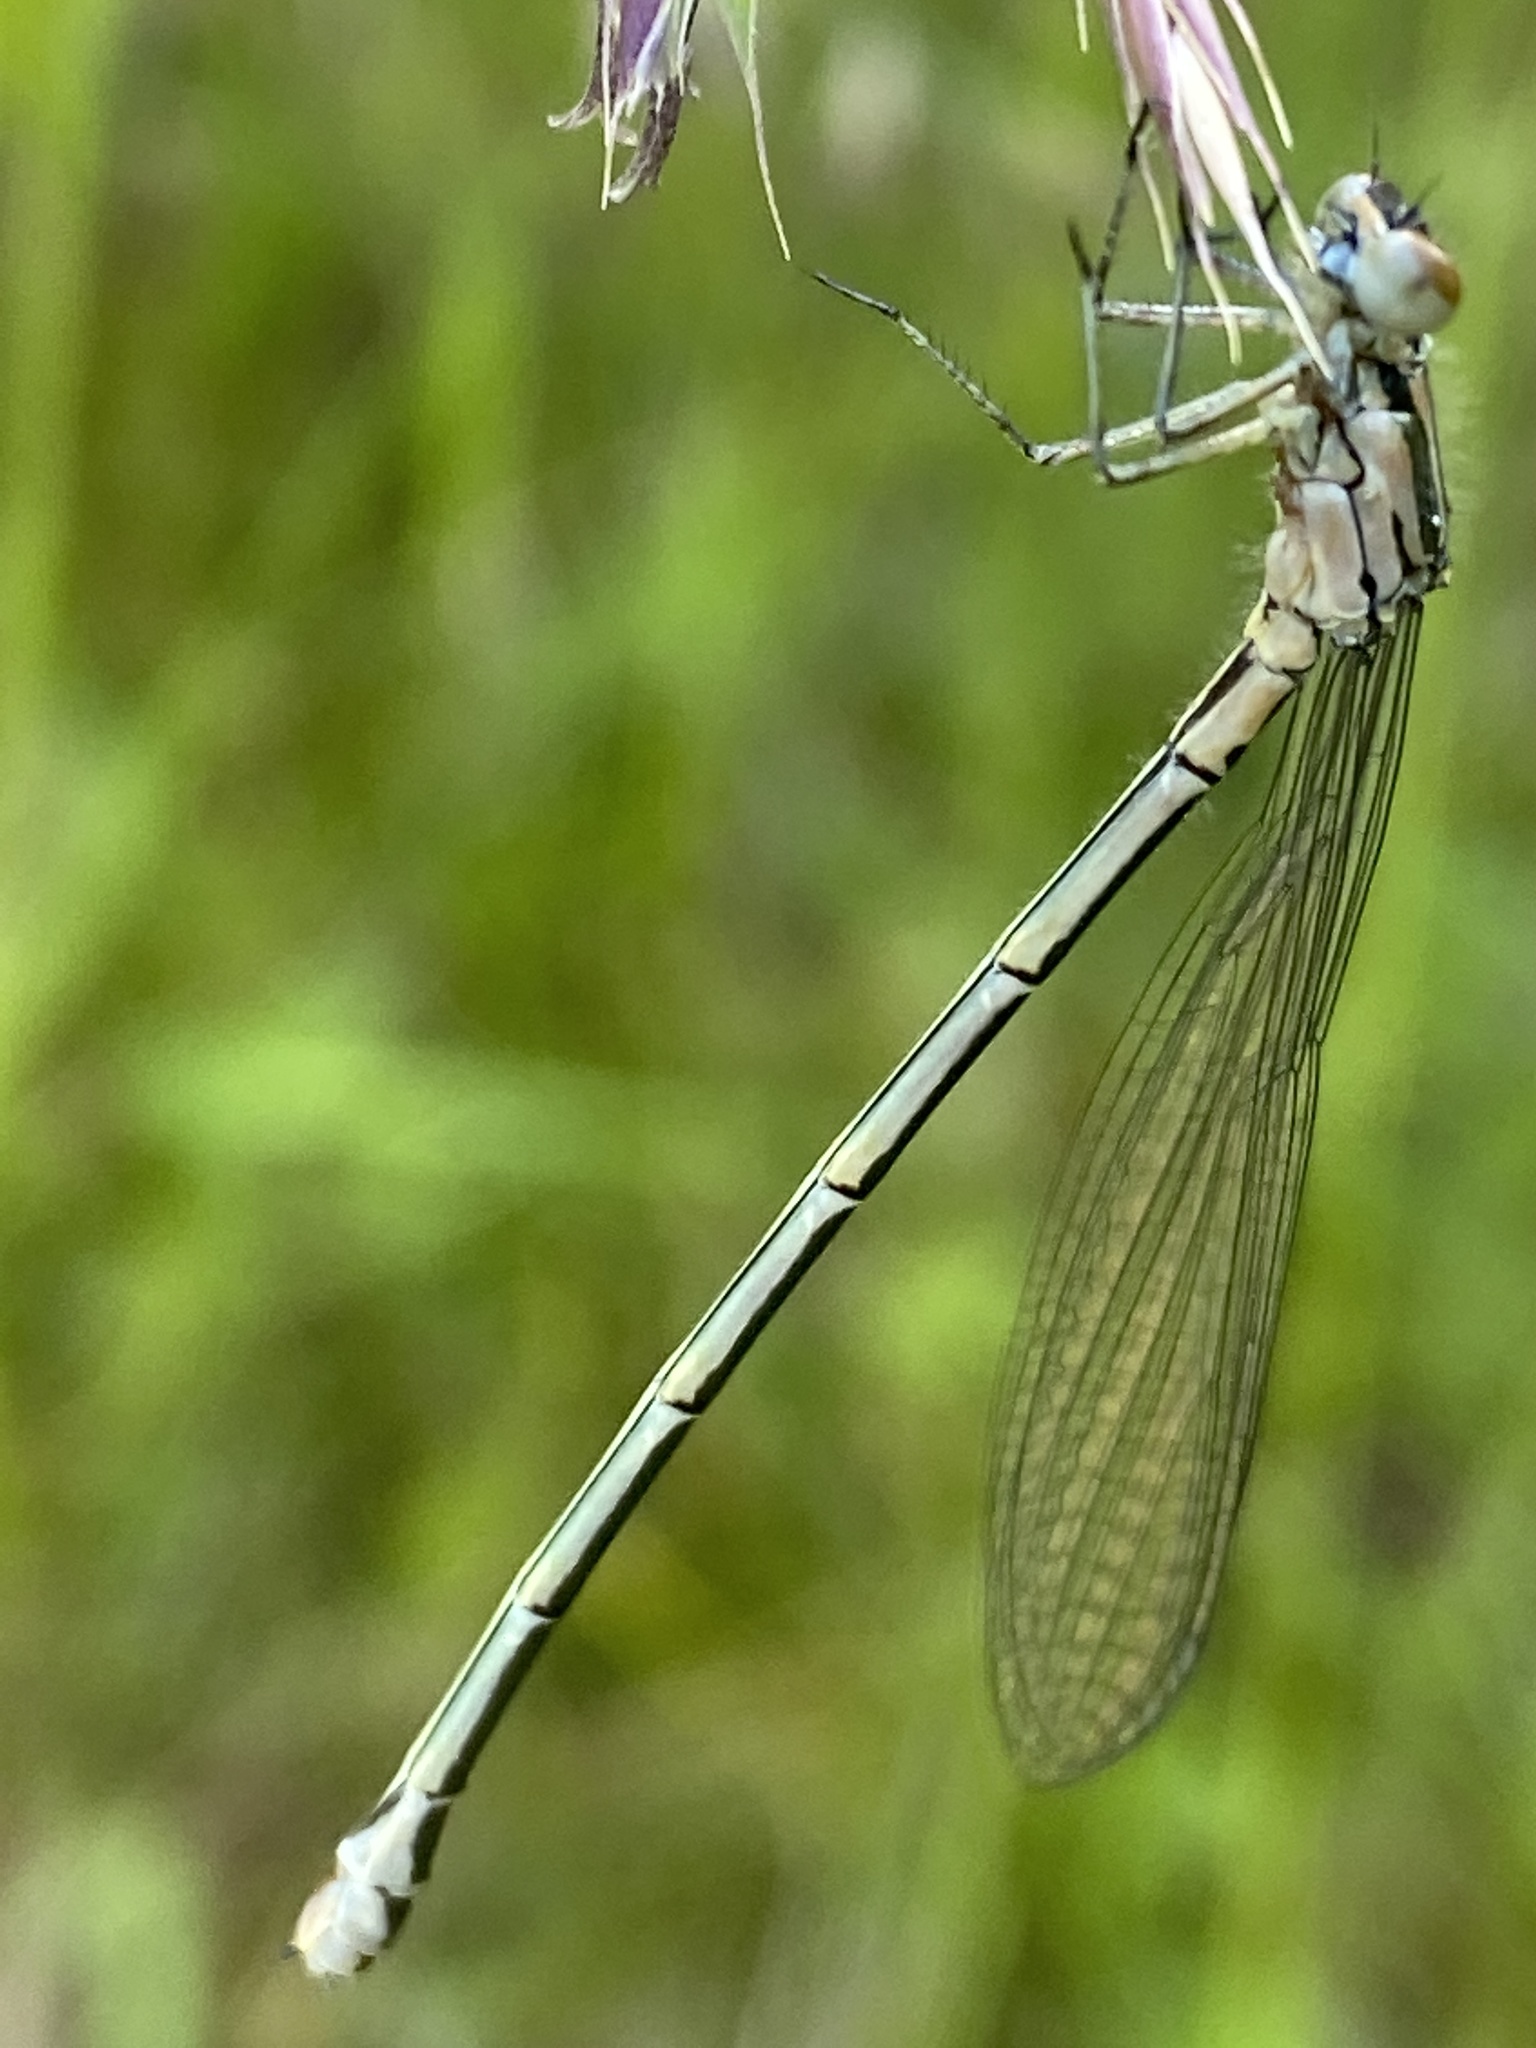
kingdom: Animalia
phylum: Arthropoda
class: Insecta
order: Odonata
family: Coenagrionidae
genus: Coenagrion
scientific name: Coenagrion puella
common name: Azure damselfly
